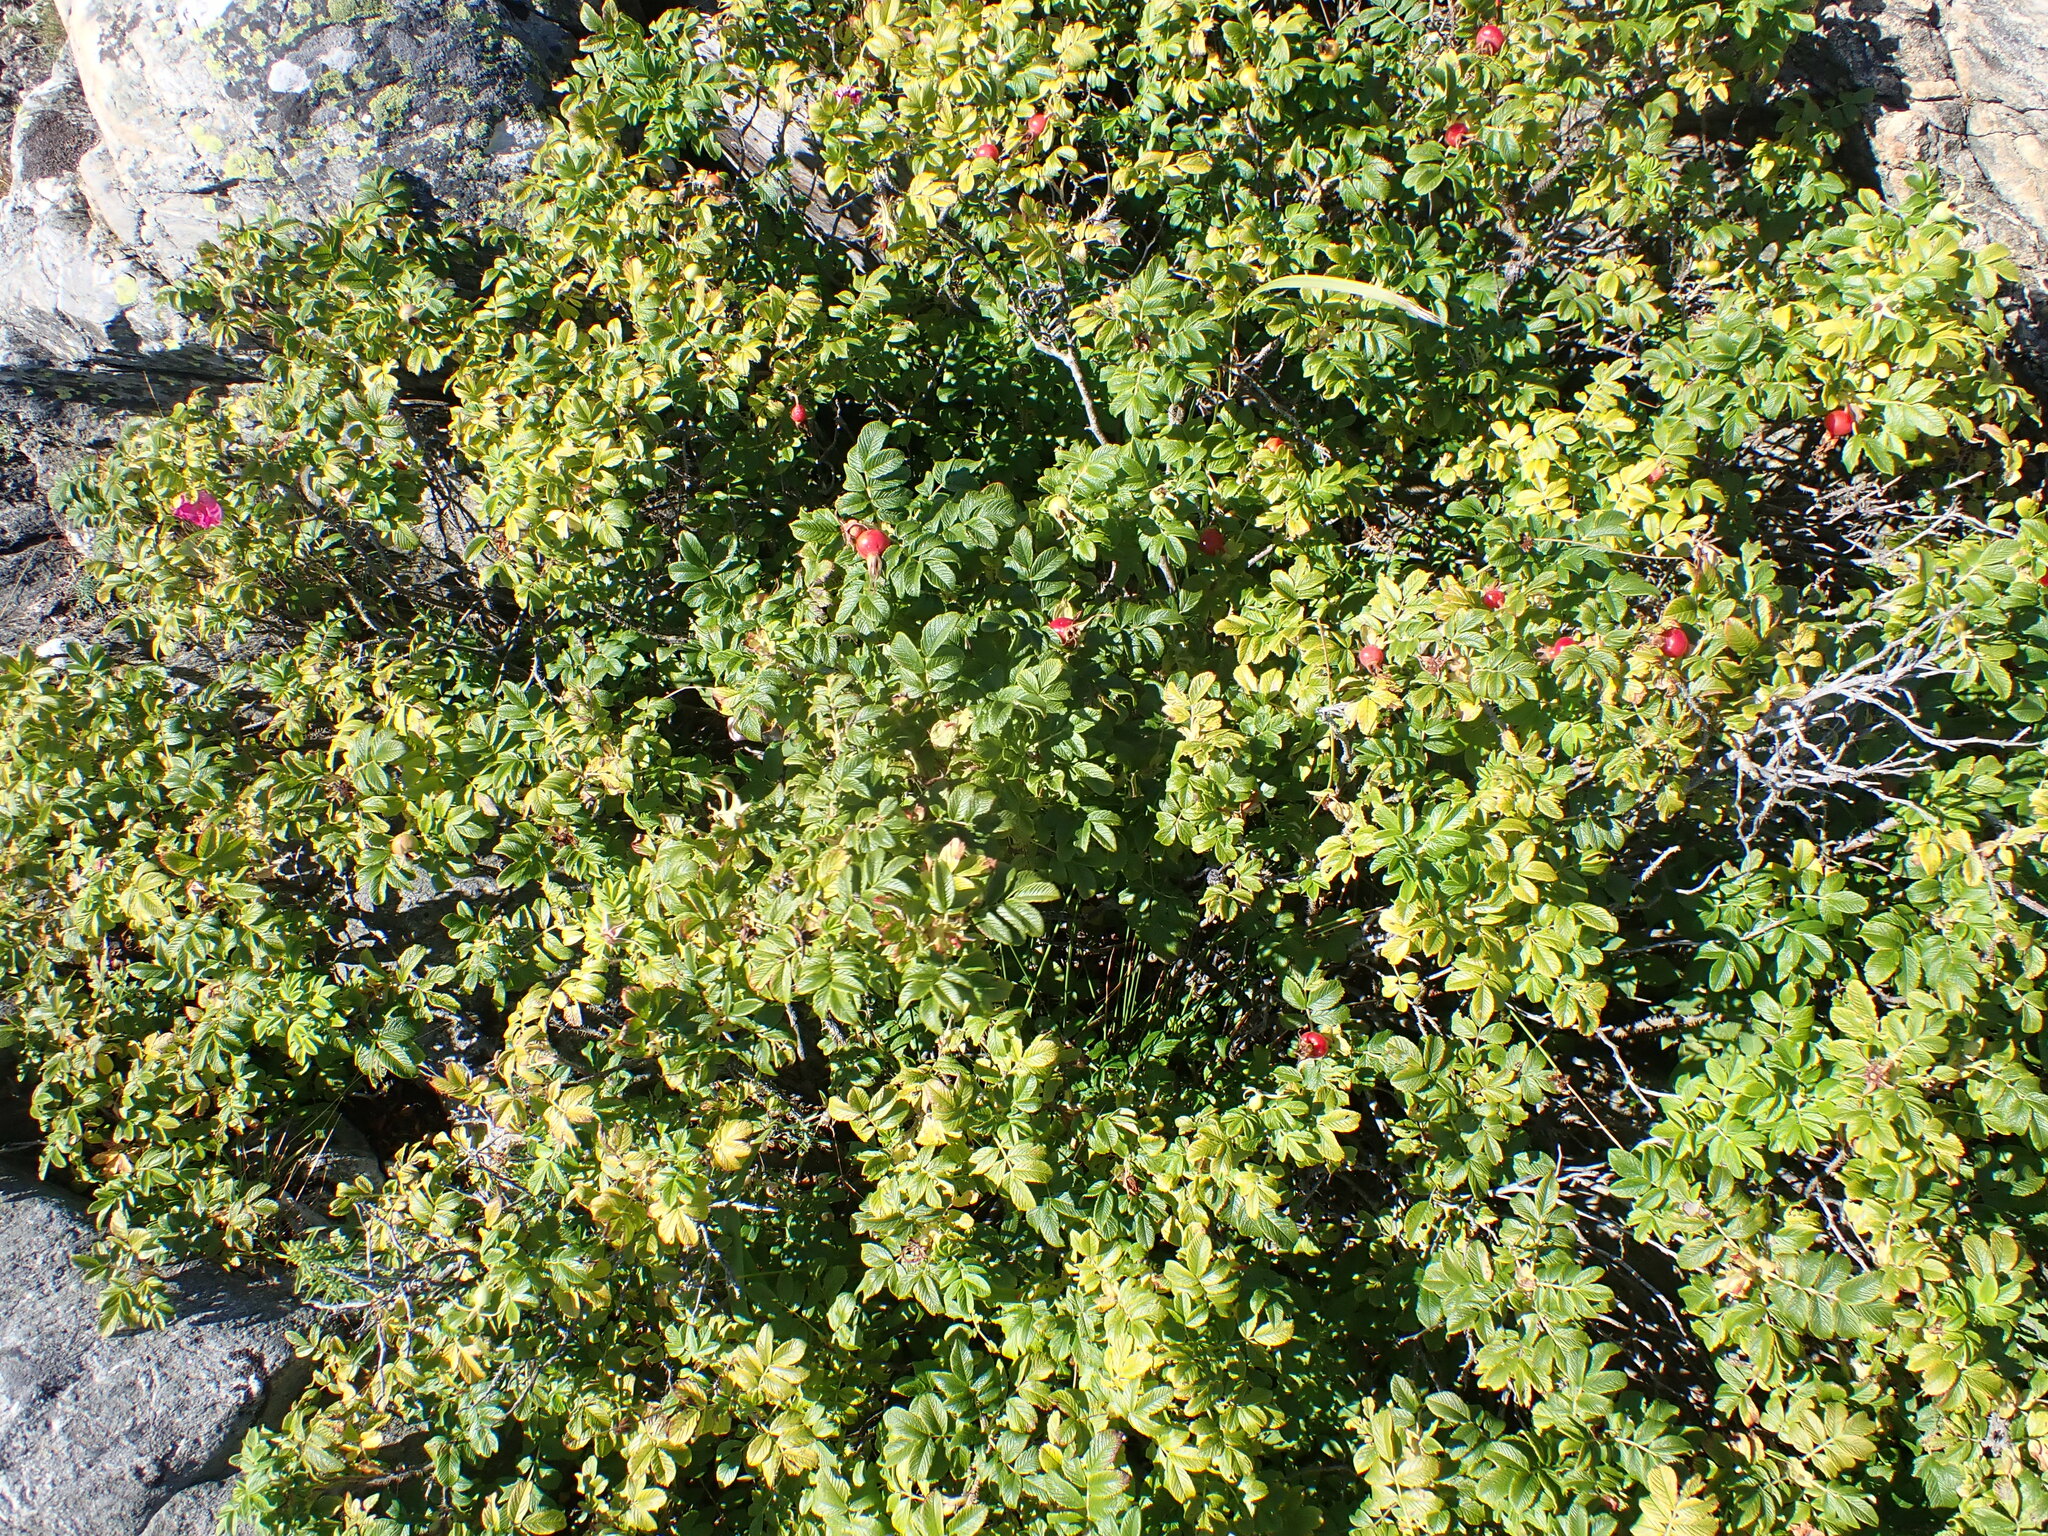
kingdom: Plantae
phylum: Tracheophyta
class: Magnoliopsida
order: Rosales
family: Rosaceae
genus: Rosa
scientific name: Rosa rugosa
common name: Japanese rose
